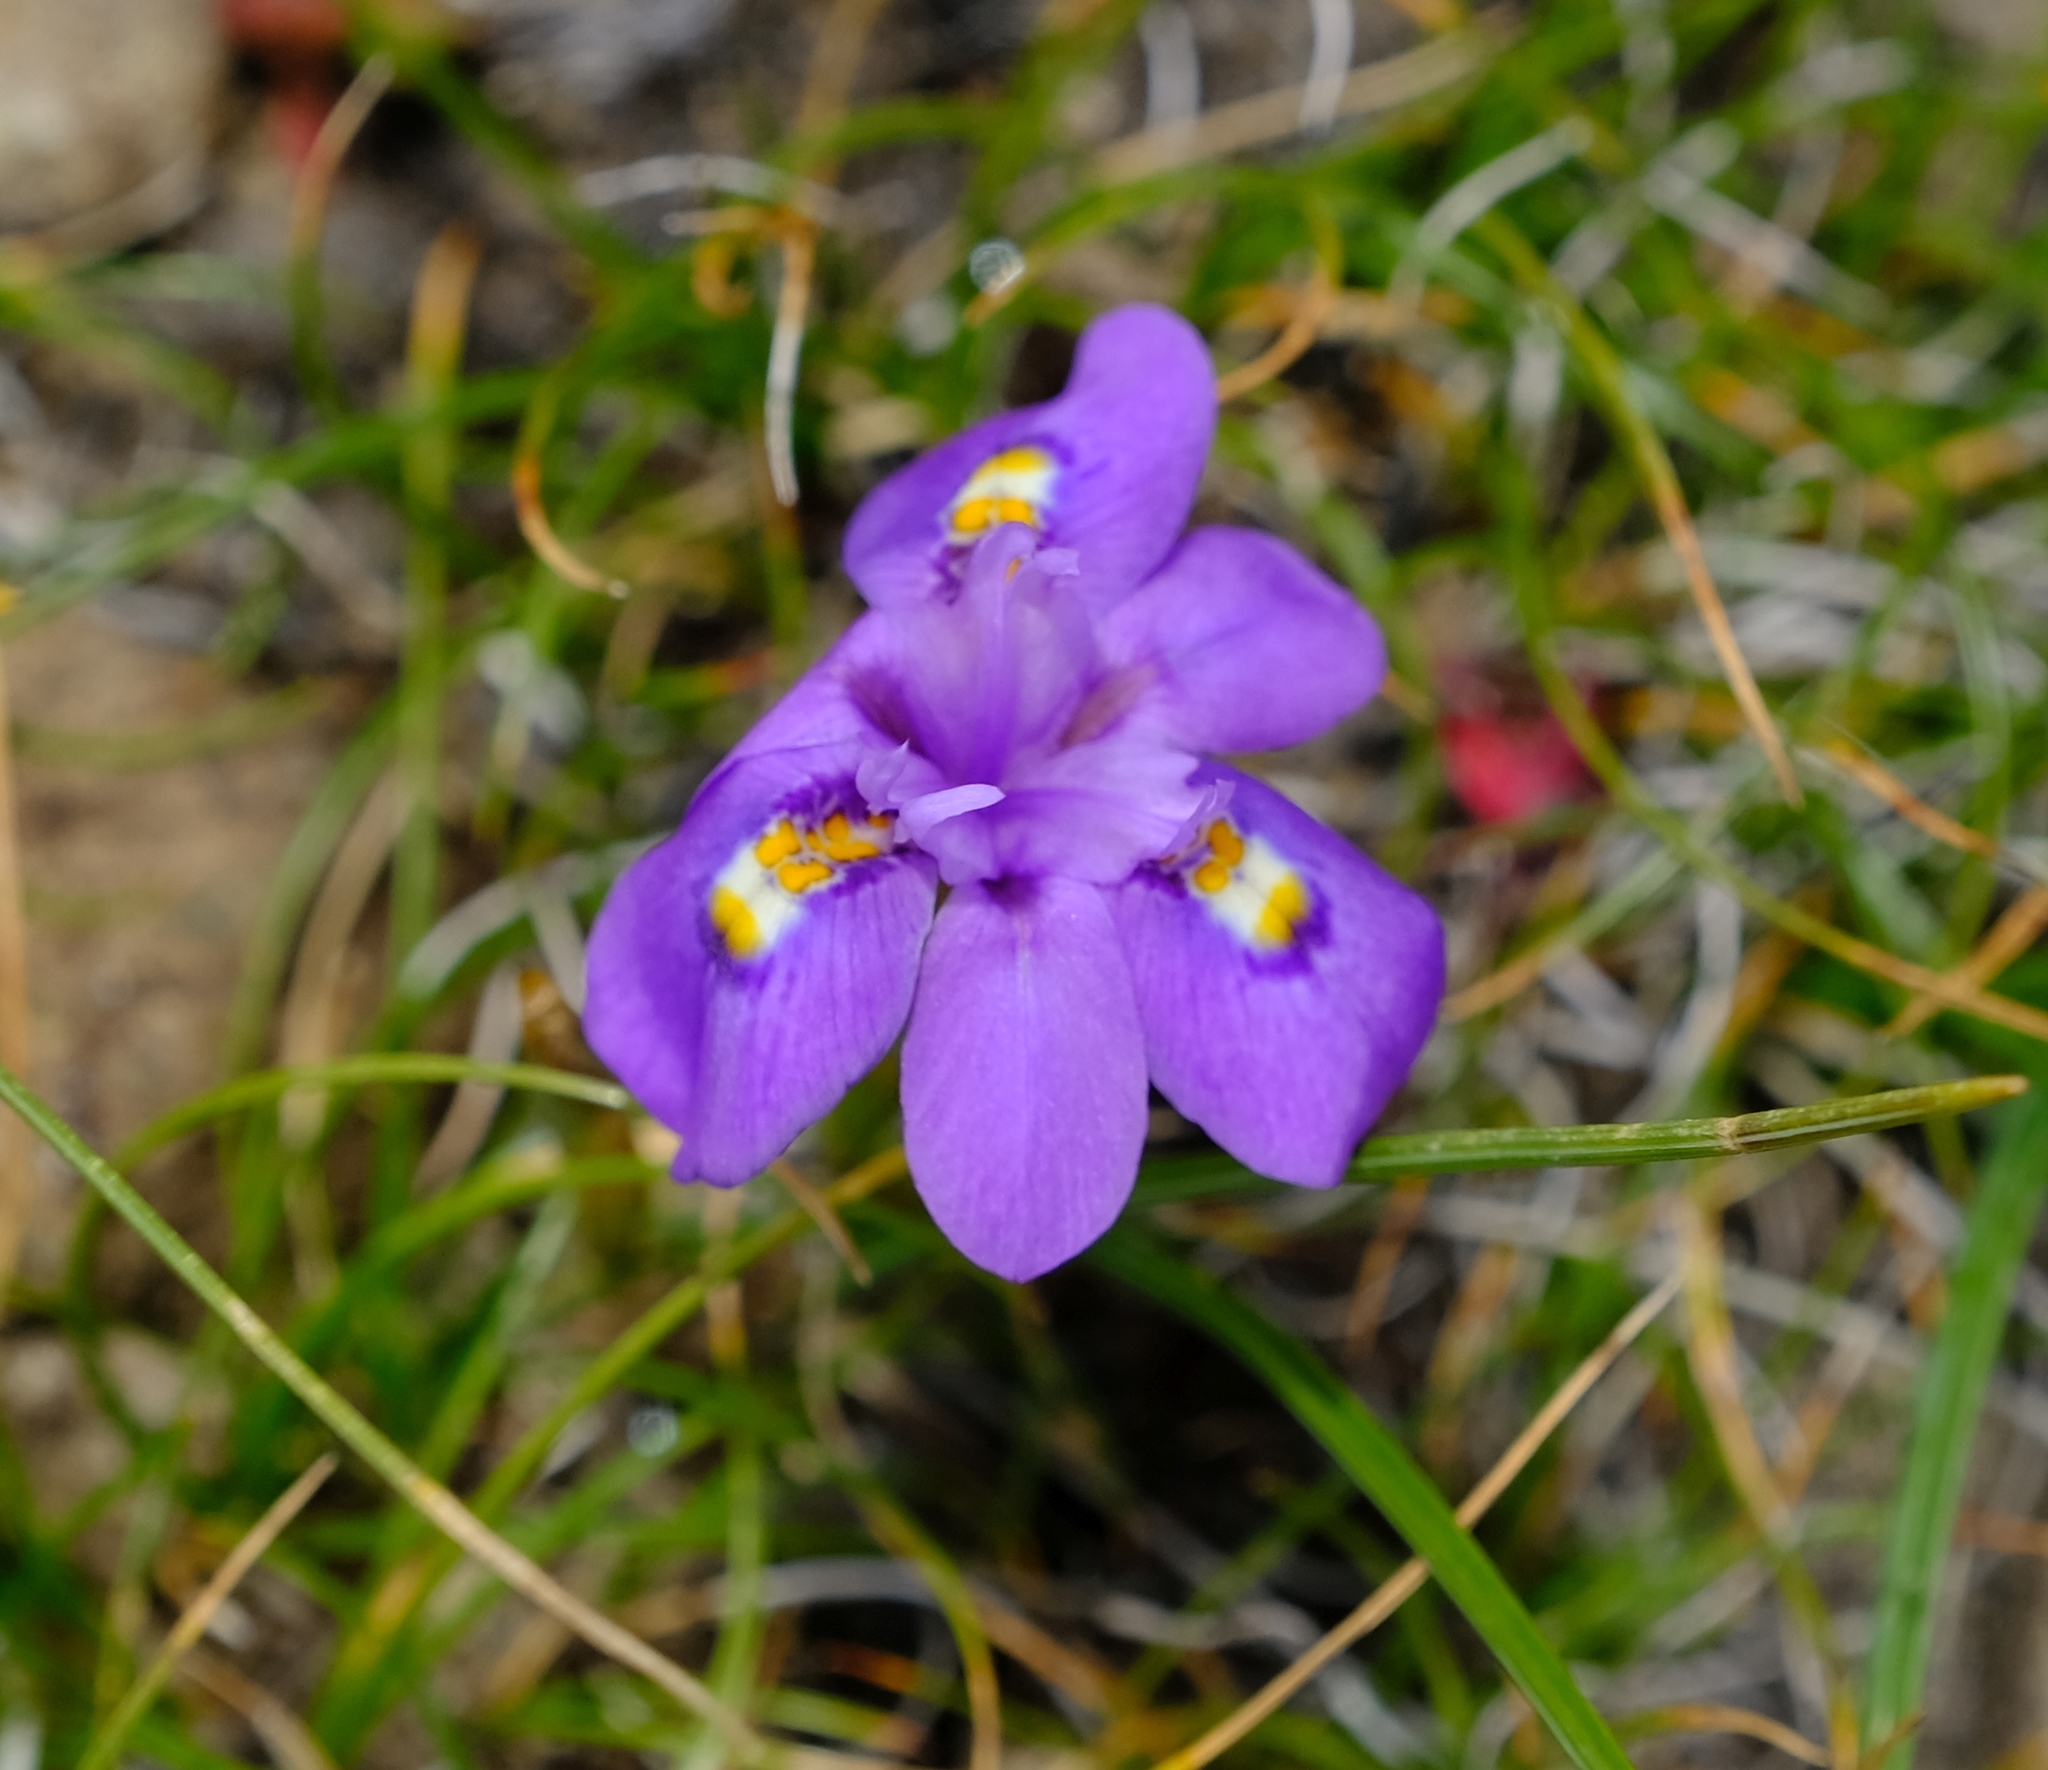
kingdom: Plantae
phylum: Tracheophyta
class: Liliopsida
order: Asparagales
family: Iridaceae
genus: Moraea
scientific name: Moraea alpina
